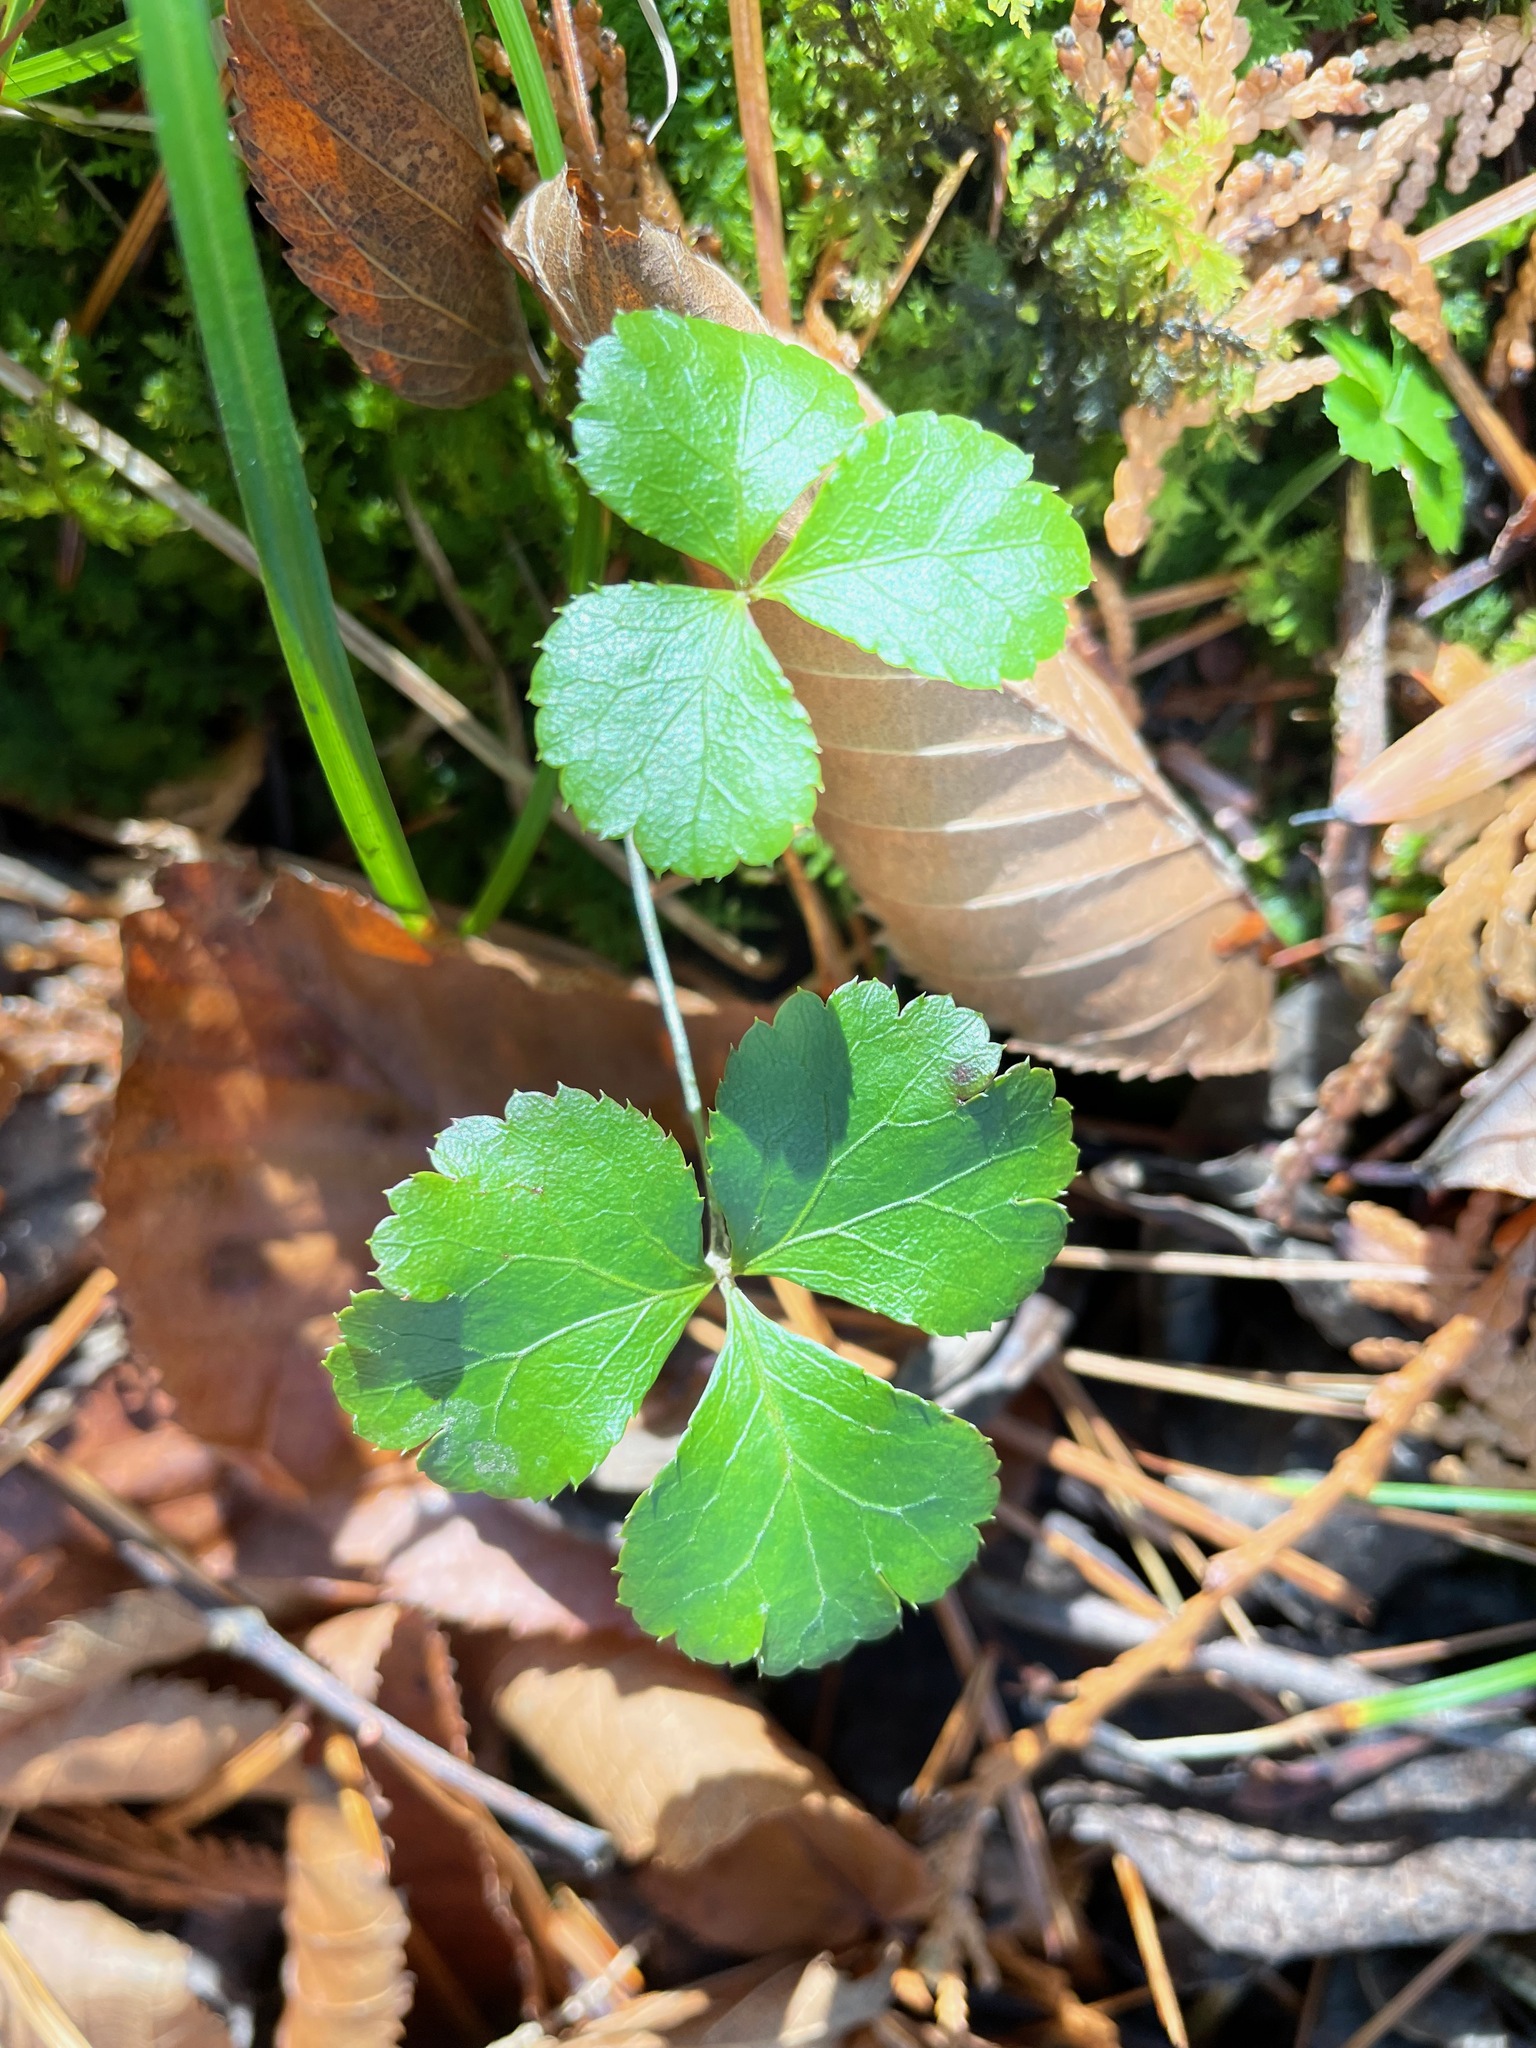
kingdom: Plantae
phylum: Tracheophyta
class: Magnoliopsida
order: Ranunculales
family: Ranunculaceae
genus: Coptis
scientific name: Coptis trifolia
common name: Canker-root
